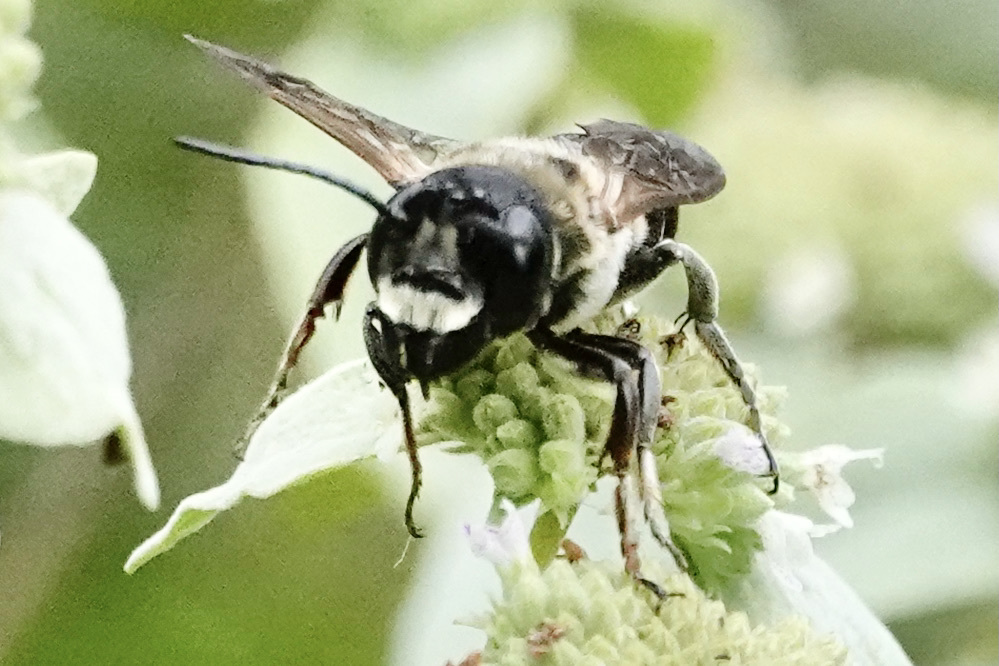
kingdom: Animalia
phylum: Arthropoda
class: Insecta
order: Hymenoptera
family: Megachilidae
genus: Megachile
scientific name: Megachile sculpturalis
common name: Sculptured resin bee
